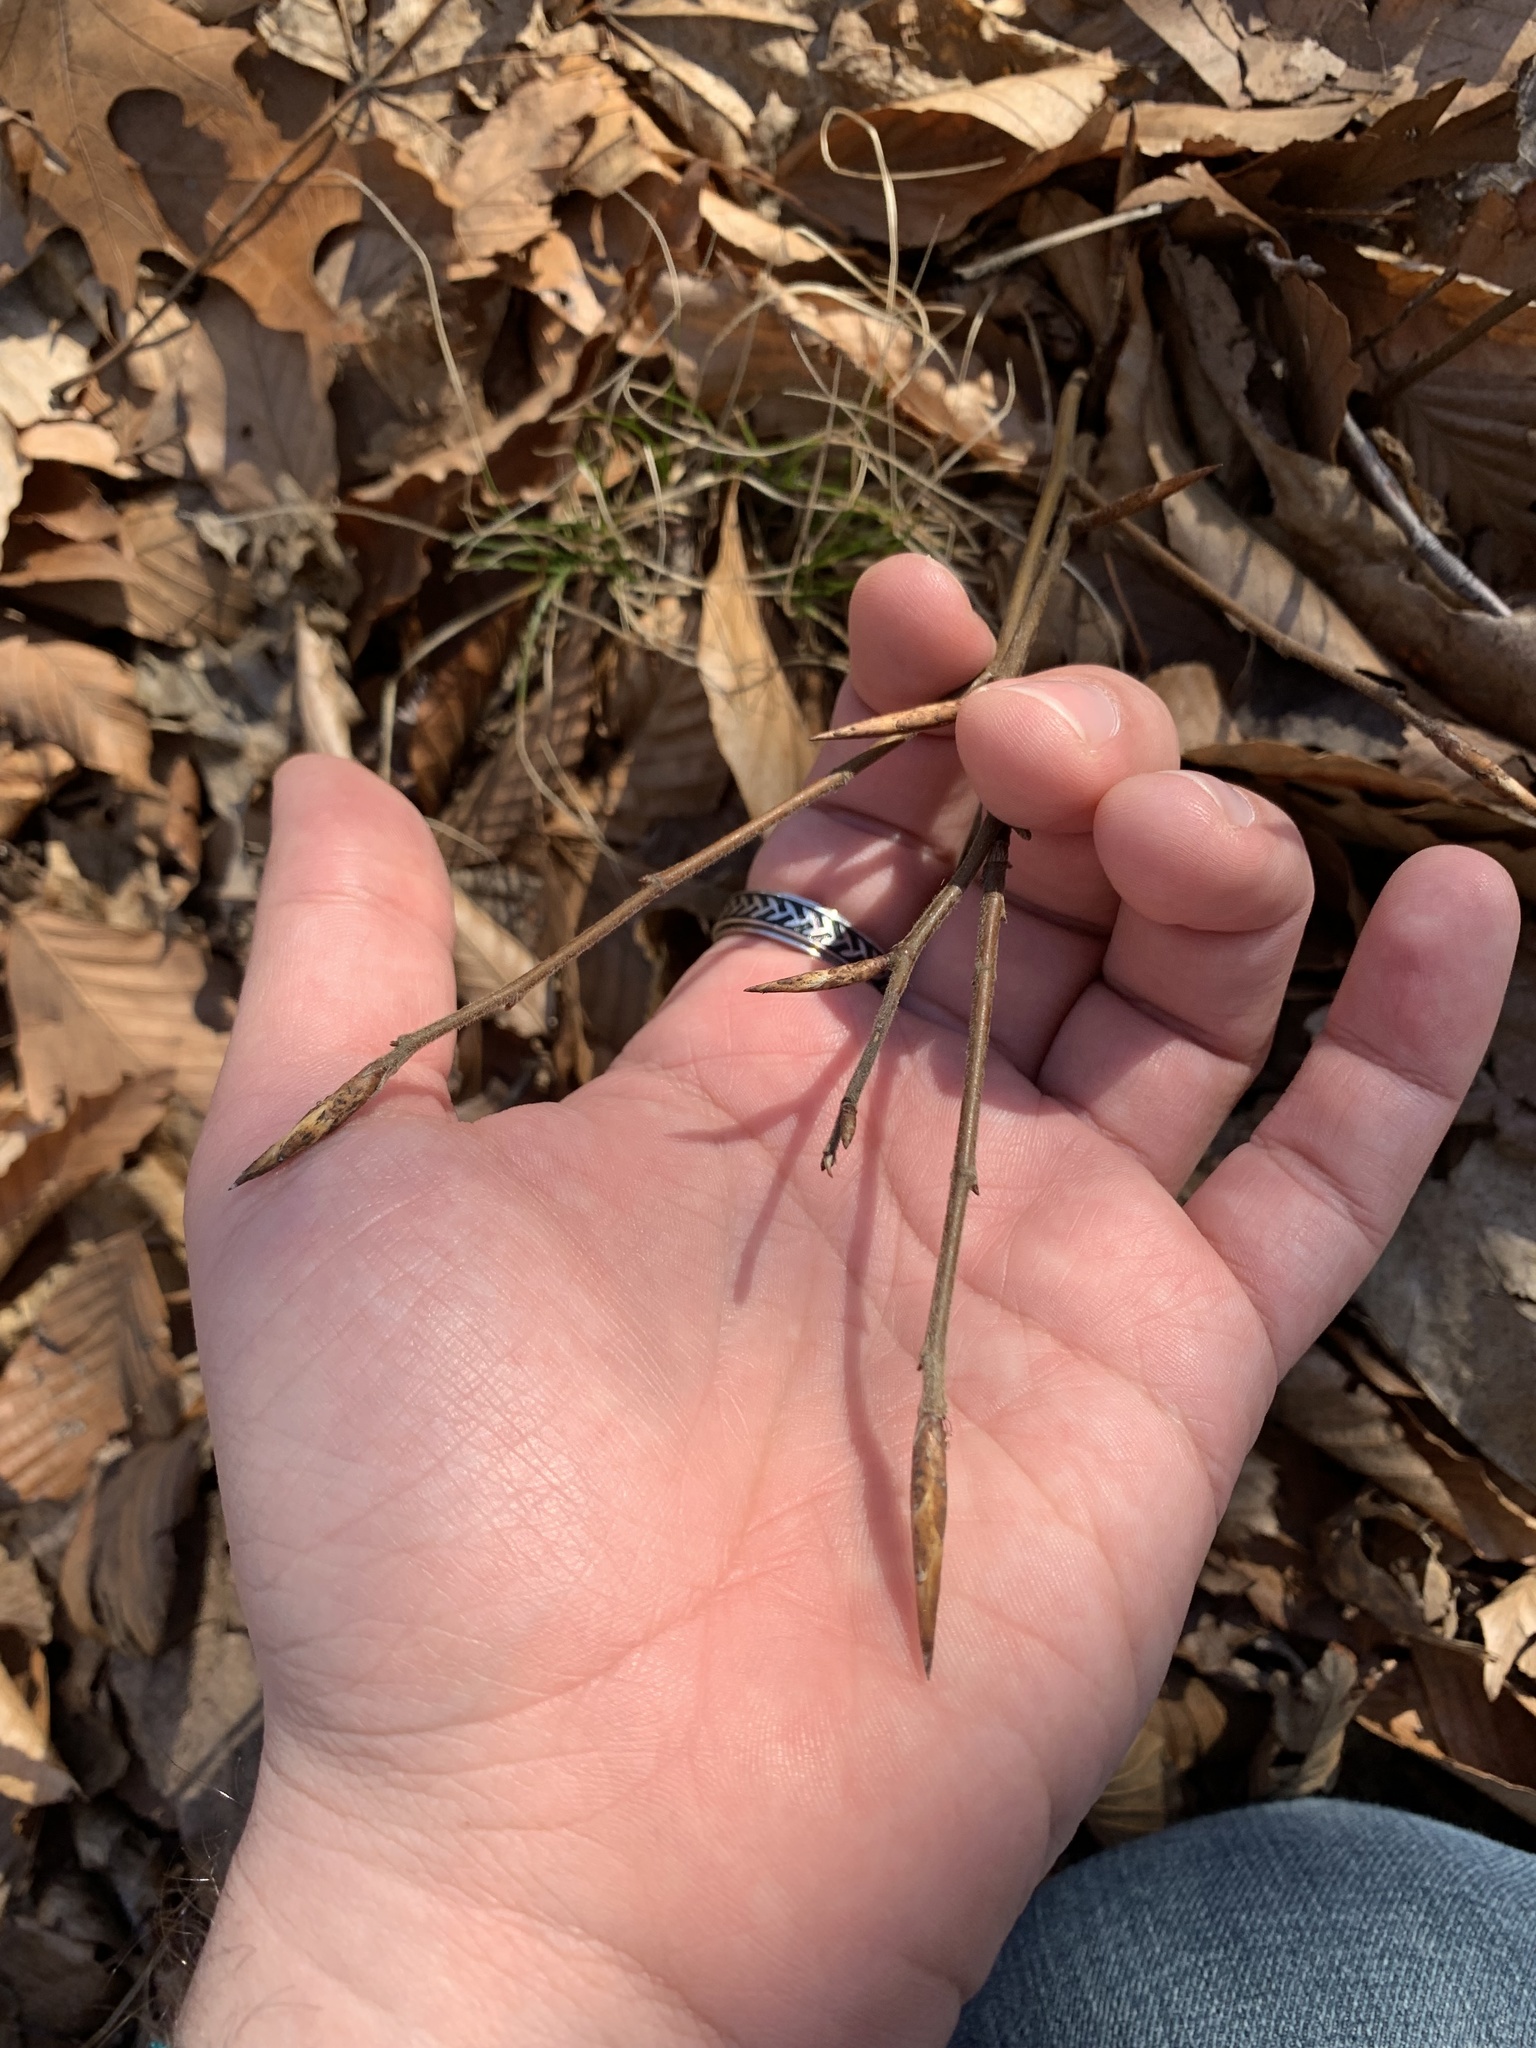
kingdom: Plantae
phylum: Tracheophyta
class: Magnoliopsida
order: Fagales
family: Fagaceae
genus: Fagus
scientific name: Fagus grandifolia
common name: American beech
